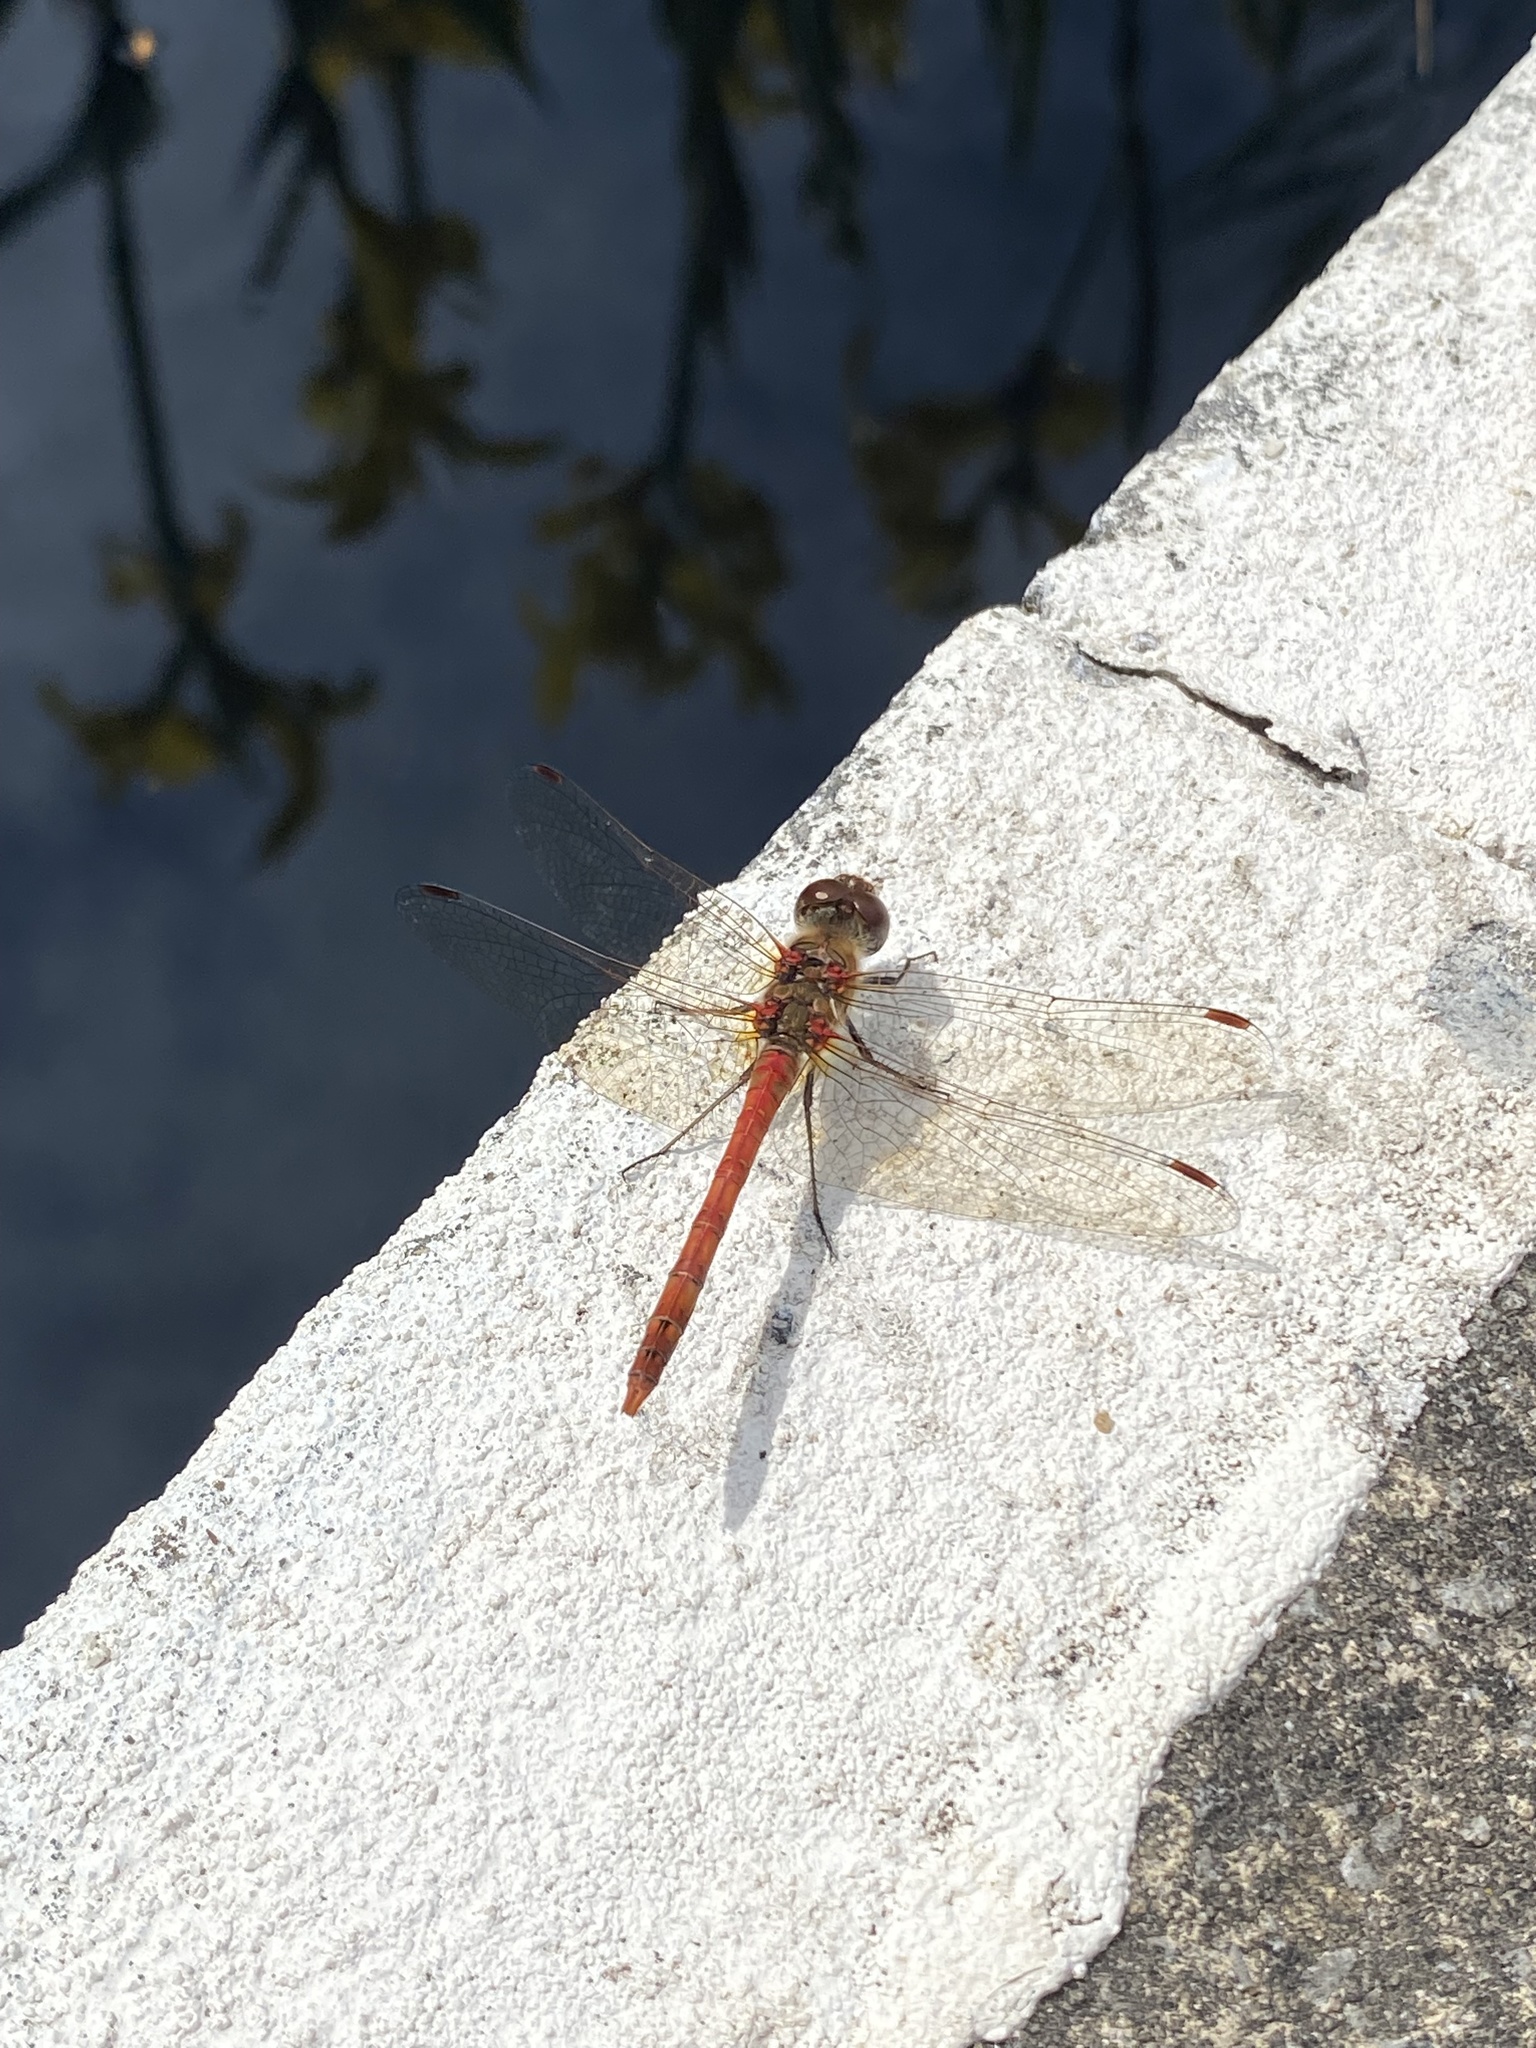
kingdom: Animalia
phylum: Arthropoda
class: Insecta
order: Odonata
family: Libellulidae
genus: Sympetrum
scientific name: Sympetrum striolatum
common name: Common darter
